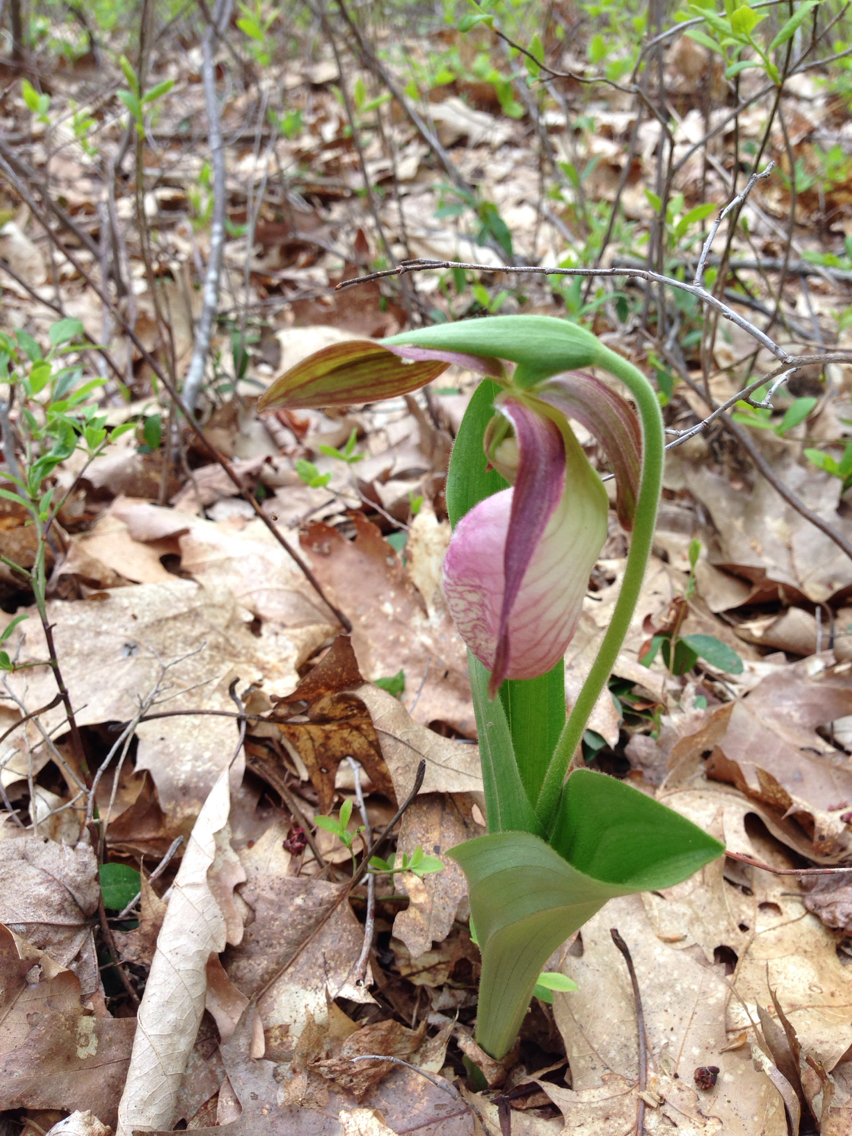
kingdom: Plantae
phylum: Tracheophyta
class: Liliopsida
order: Asparagales
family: Orchidaceae
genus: Cypripedium
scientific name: Cypripedium acaule
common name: Pink lady's-slipper
